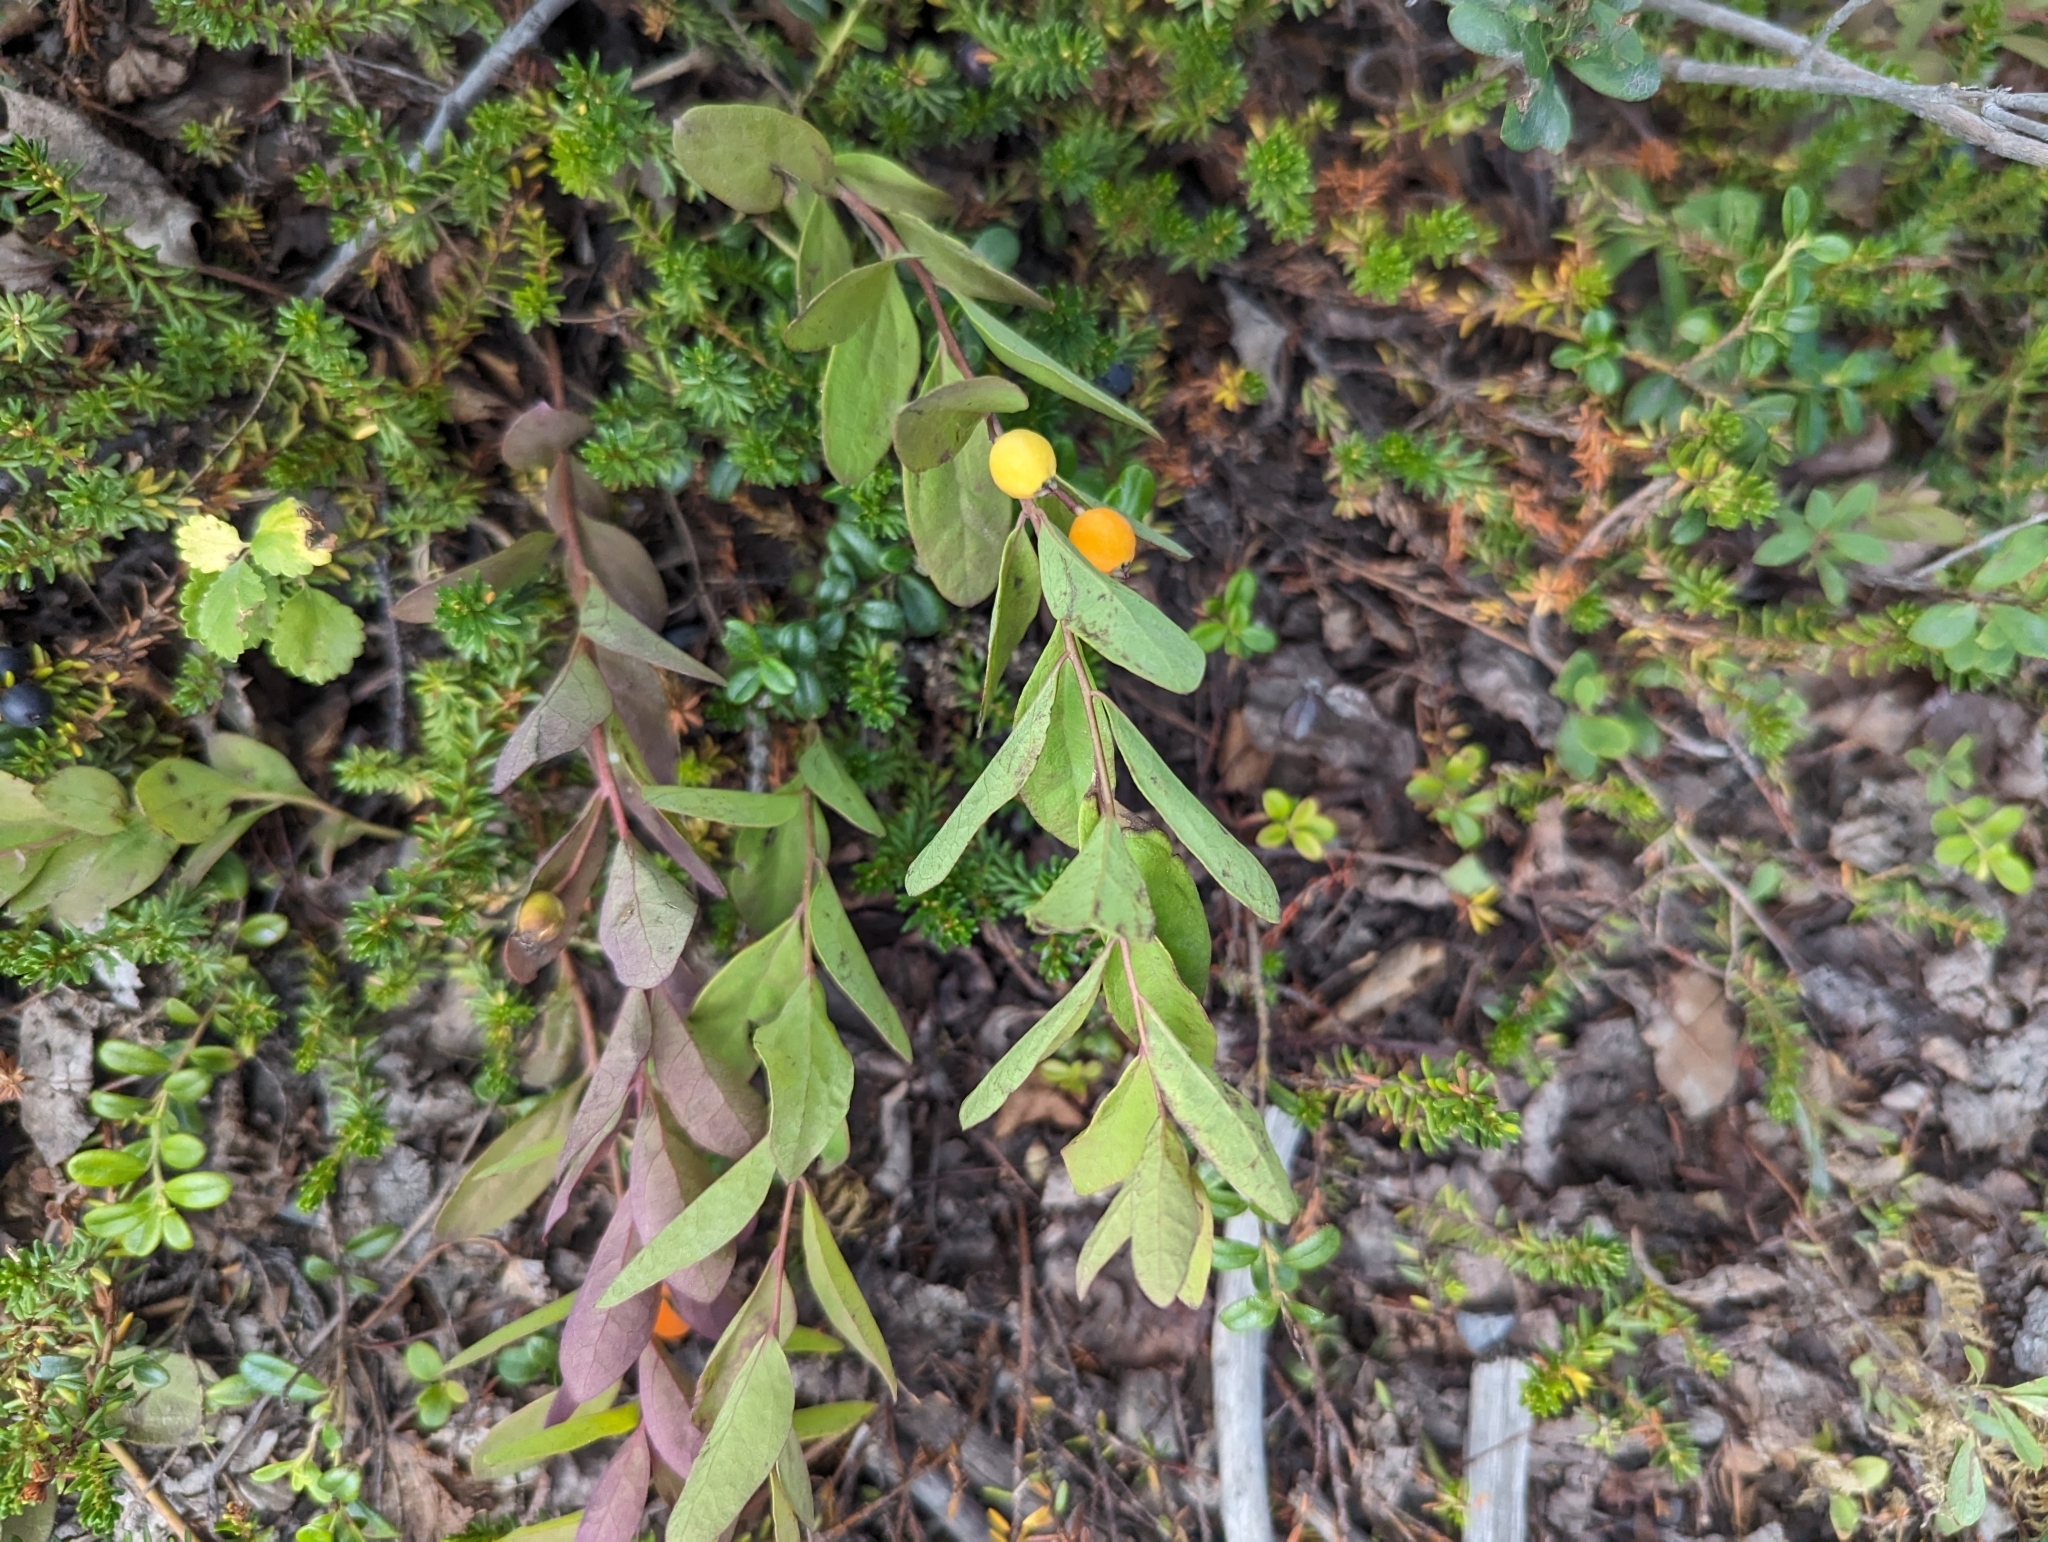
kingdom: Plantae
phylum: Tracheophyta
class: Magnoliopsida
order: Santalales
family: Comandraceae
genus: Geocaulon
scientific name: Geocaulon lividum
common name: Earthberry
